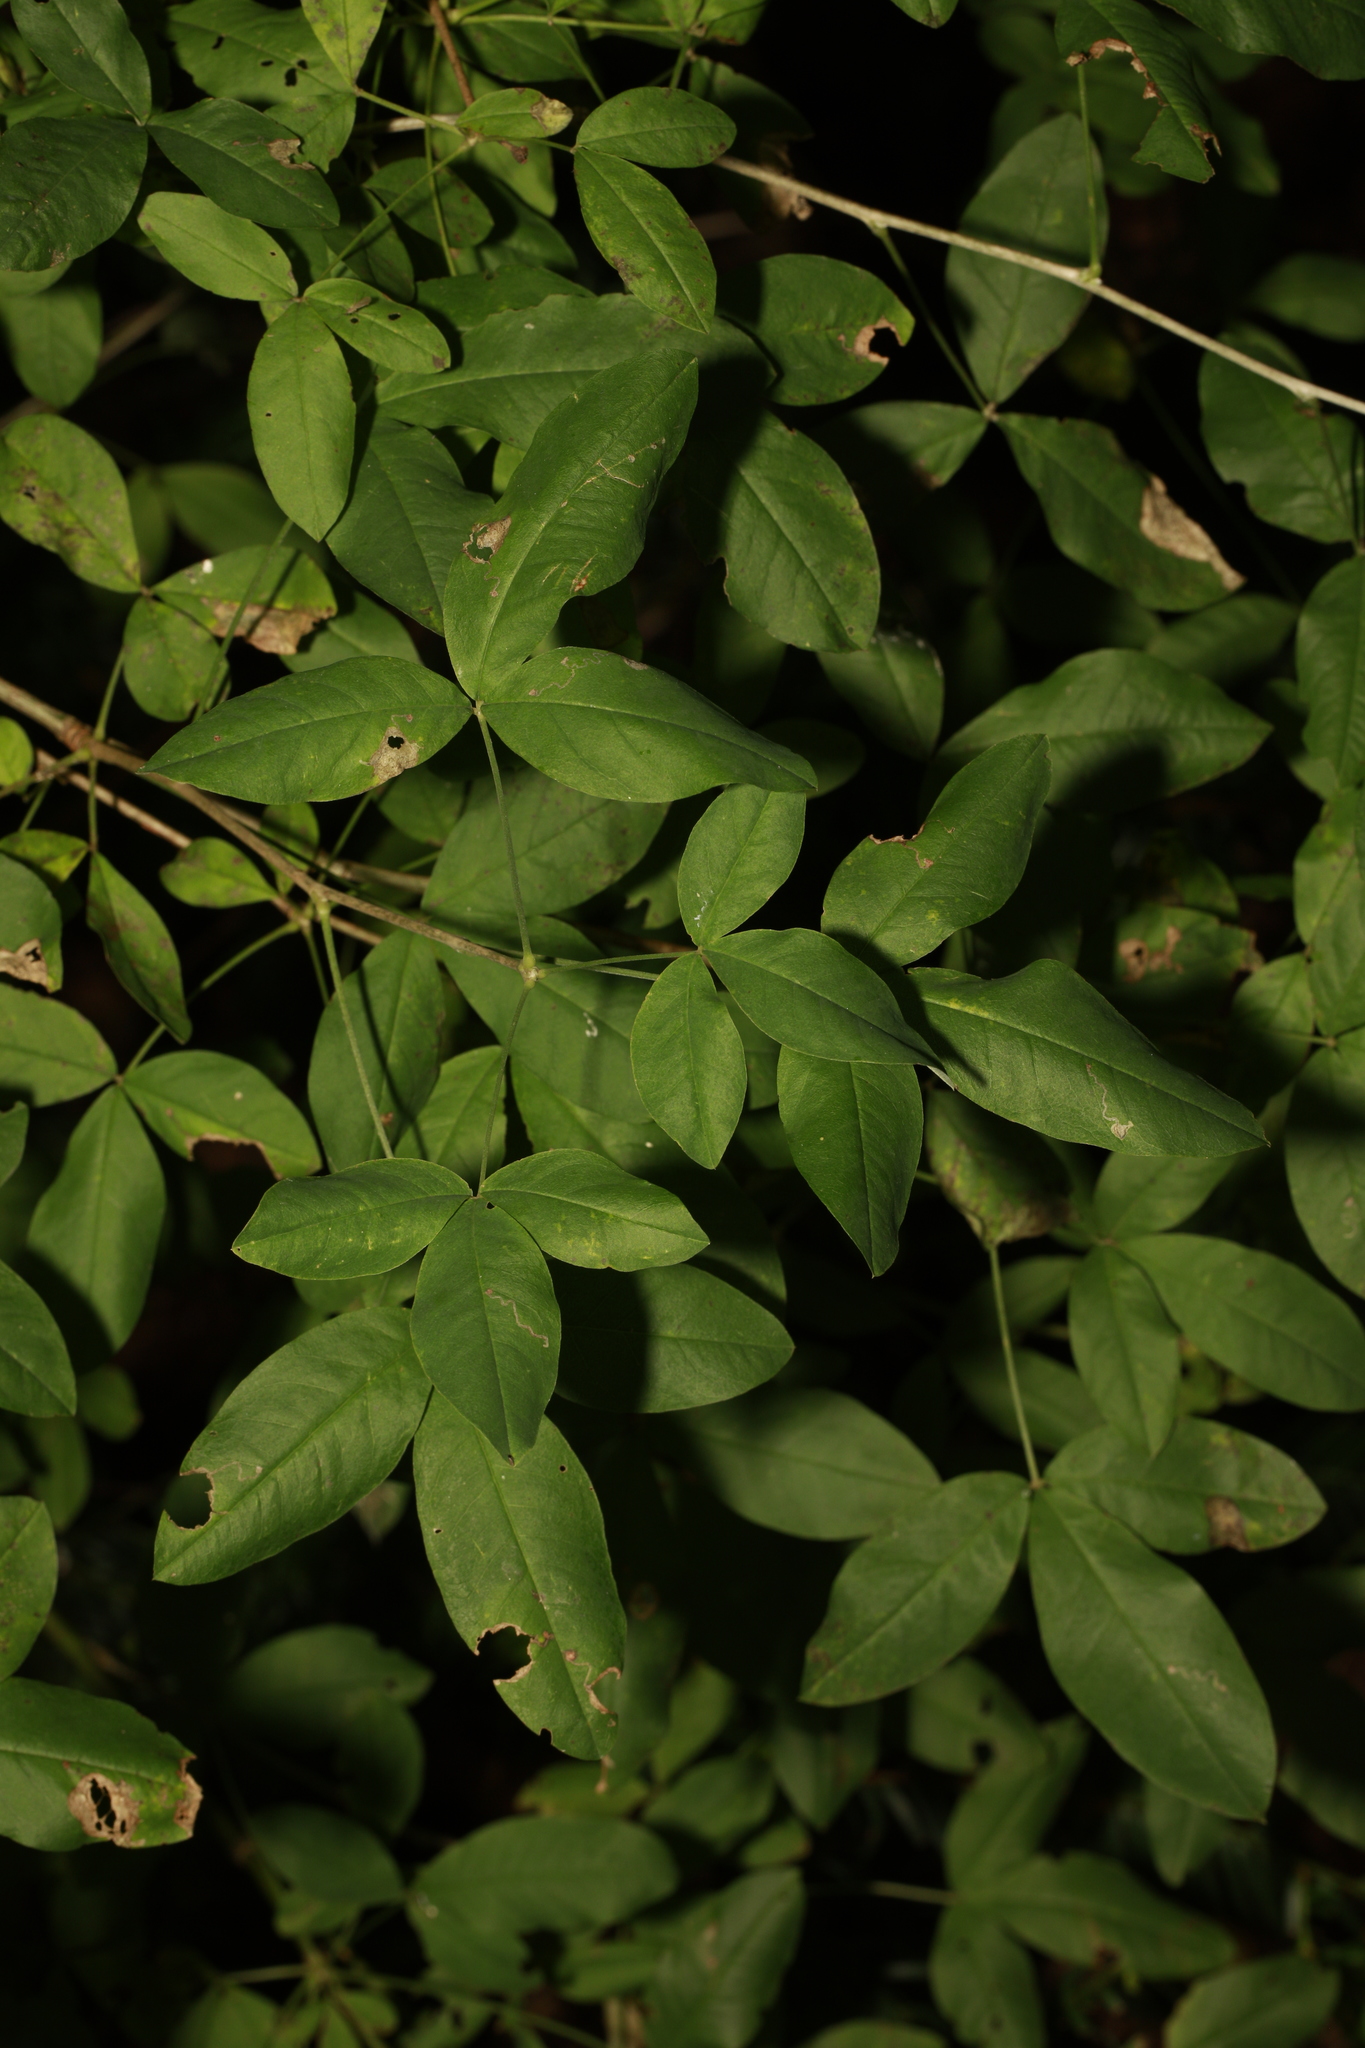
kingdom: Plantae
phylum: Tracheophyta
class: Magnoliopsida
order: Fabales
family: Fabaceae
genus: Laburnum
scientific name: Laburnum anagyroides
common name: Laburnum
